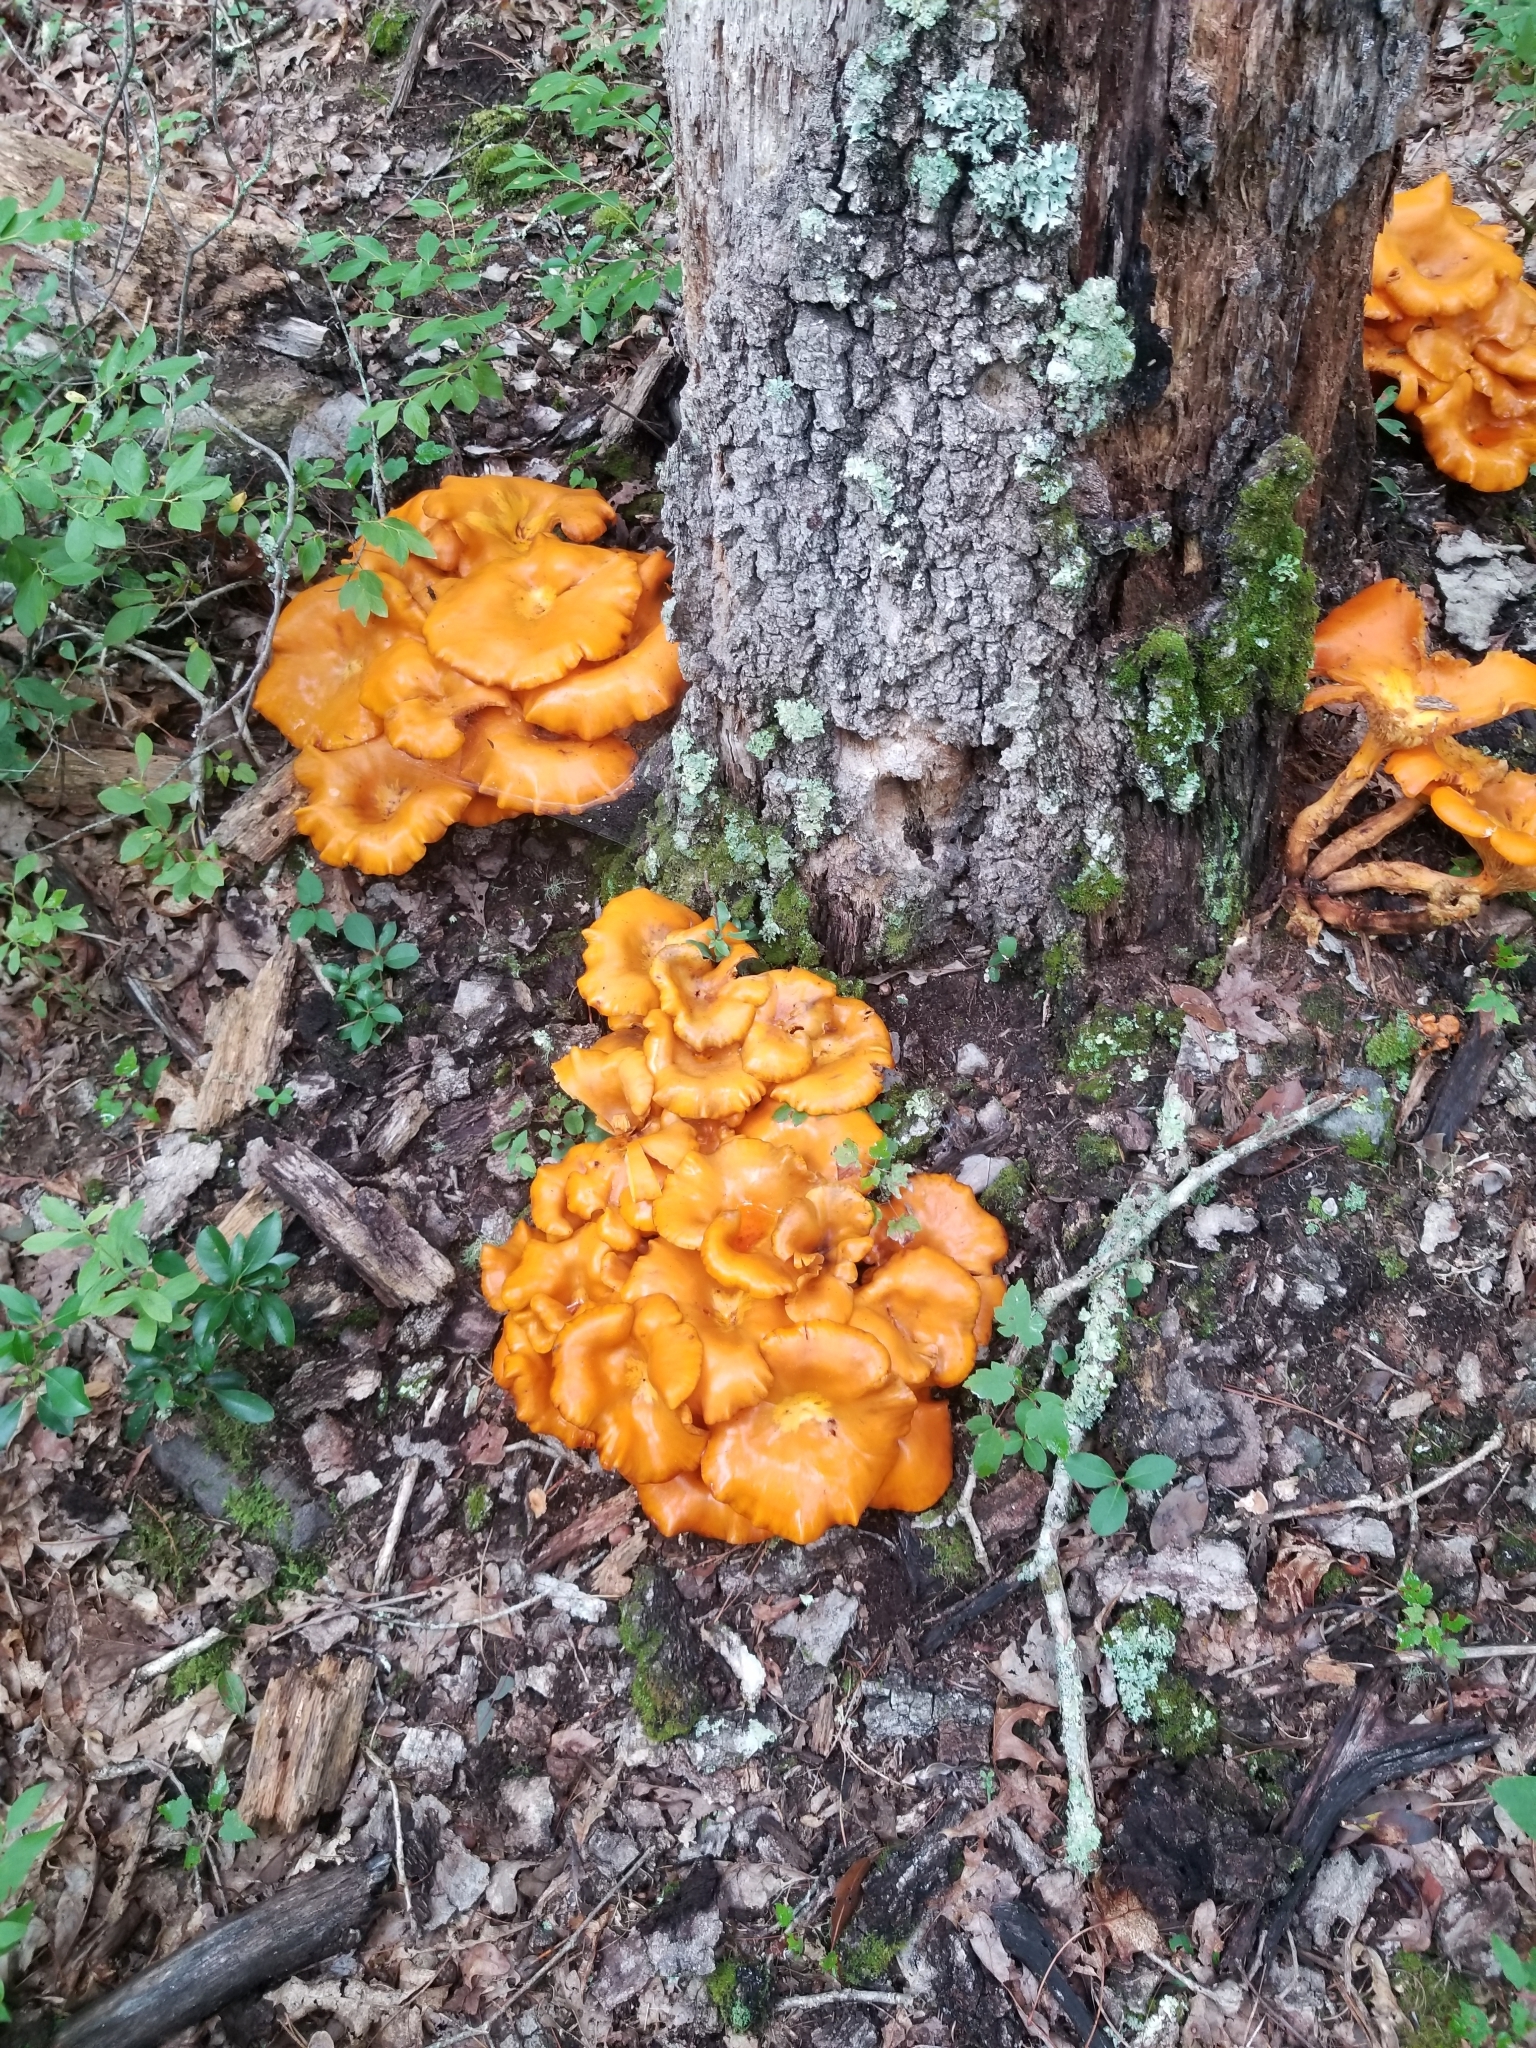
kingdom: Fungi
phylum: Basidiomycota
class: Agaricomycetes
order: Agaricales
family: Omphalotaceae
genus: Omphalotus
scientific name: Omphalotus illudens
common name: Jack o lantern
